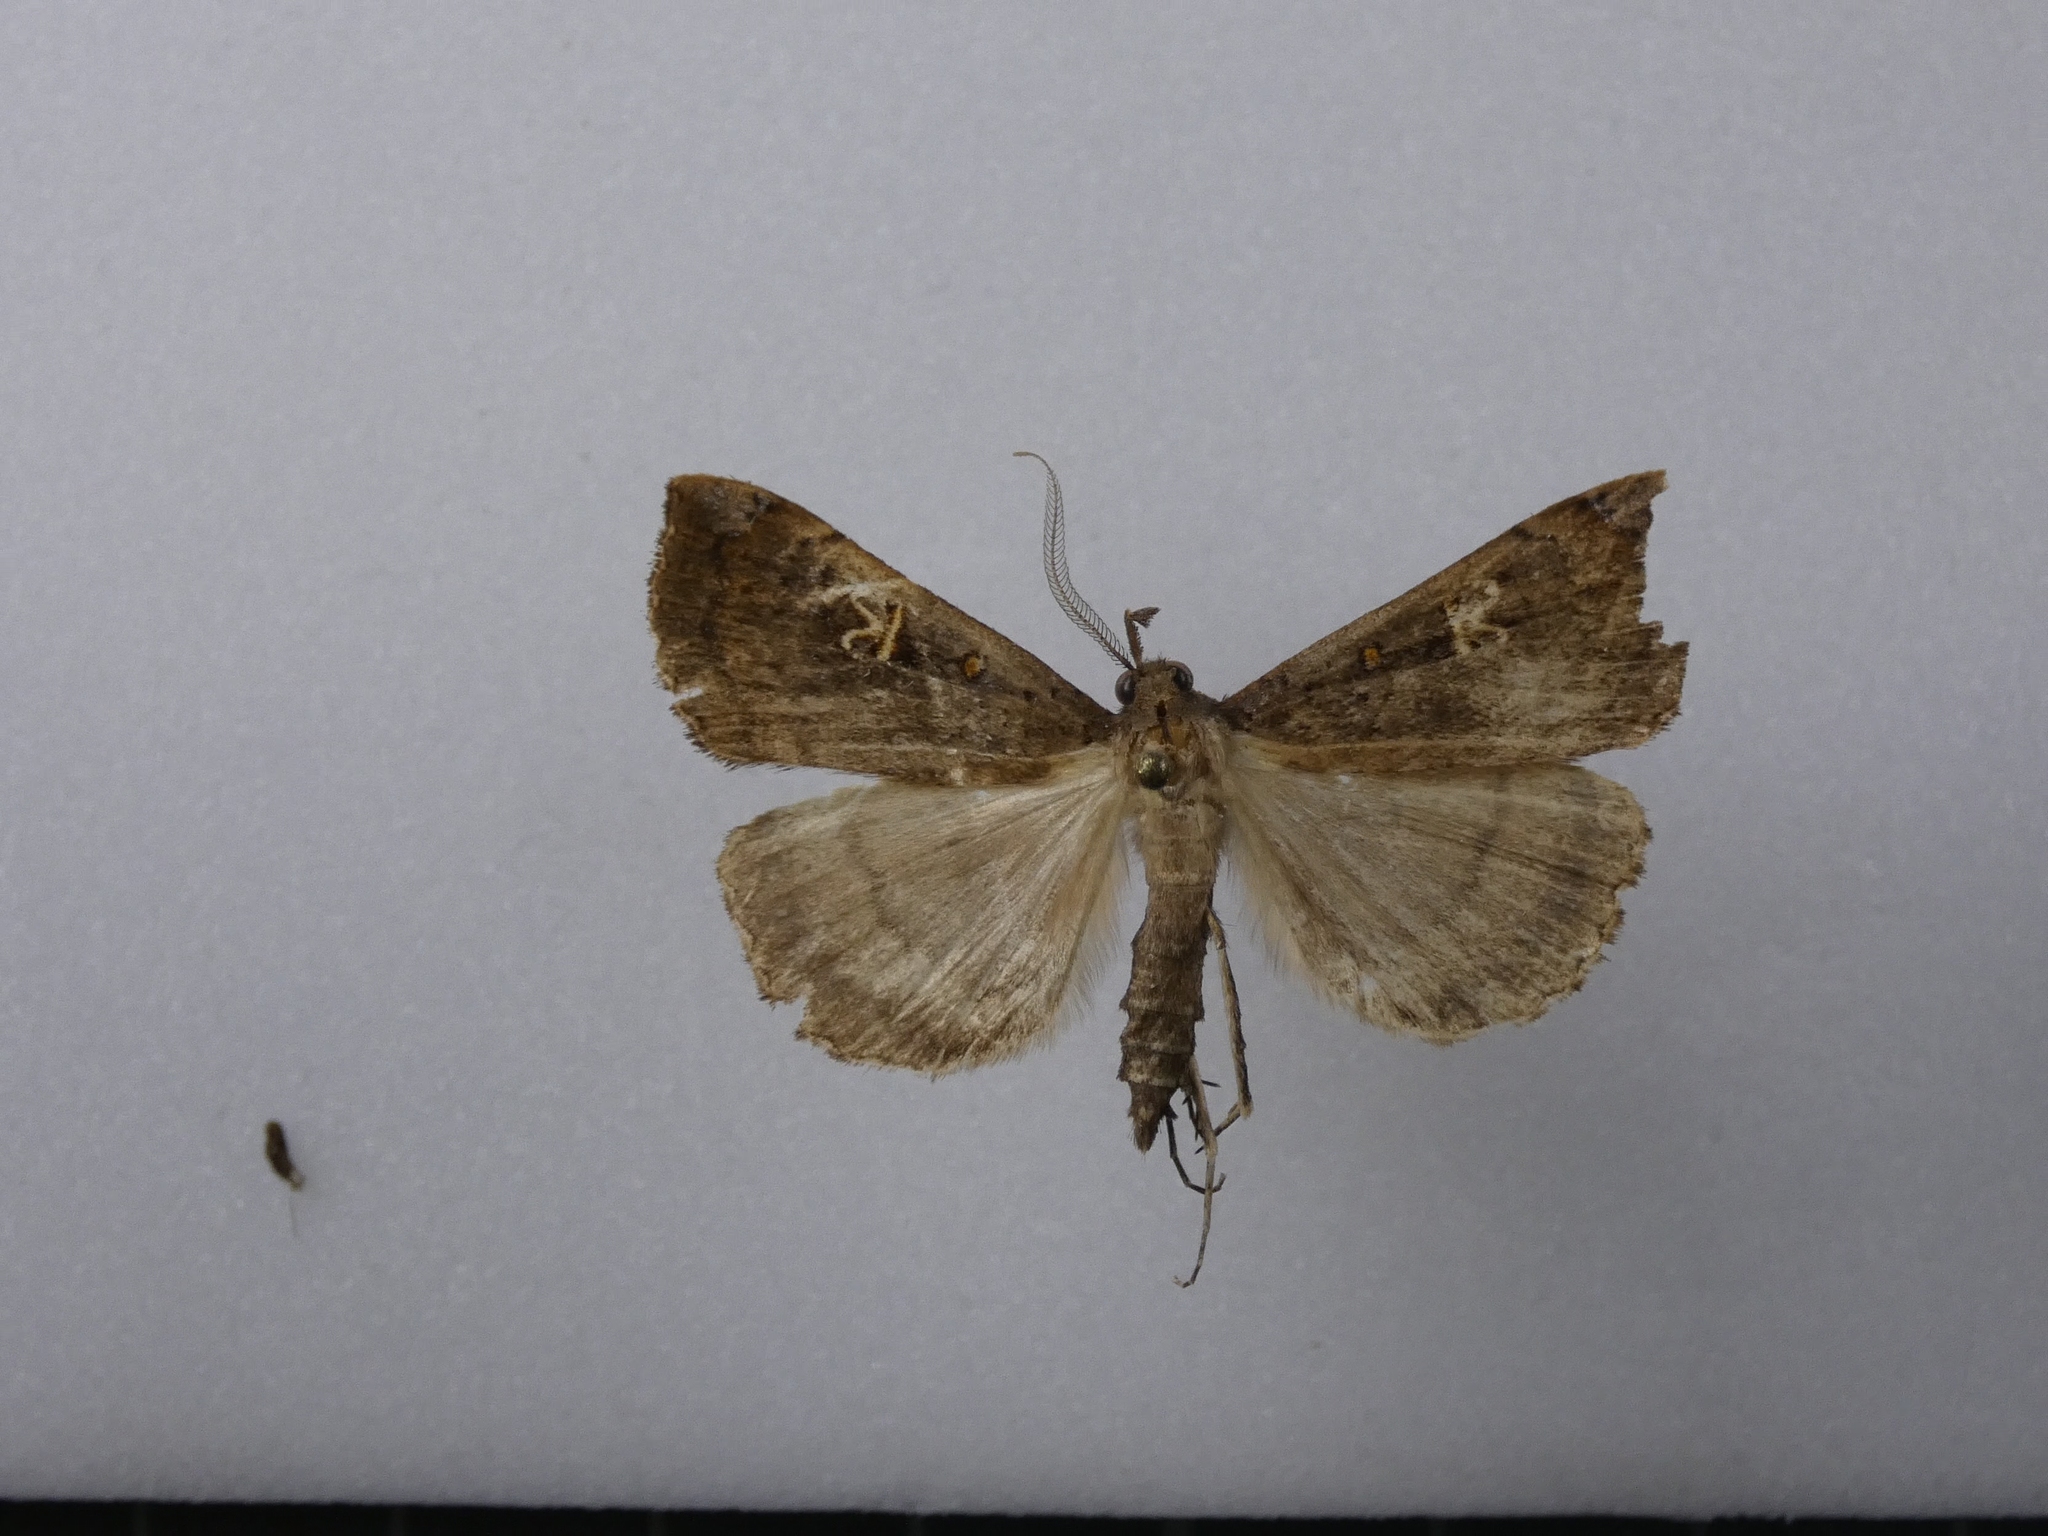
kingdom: Animalia
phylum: Arthropoda
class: Insecta
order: Lepidoptera
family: Erebidae
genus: Rhapsa
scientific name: Rhapsa scotosialis
